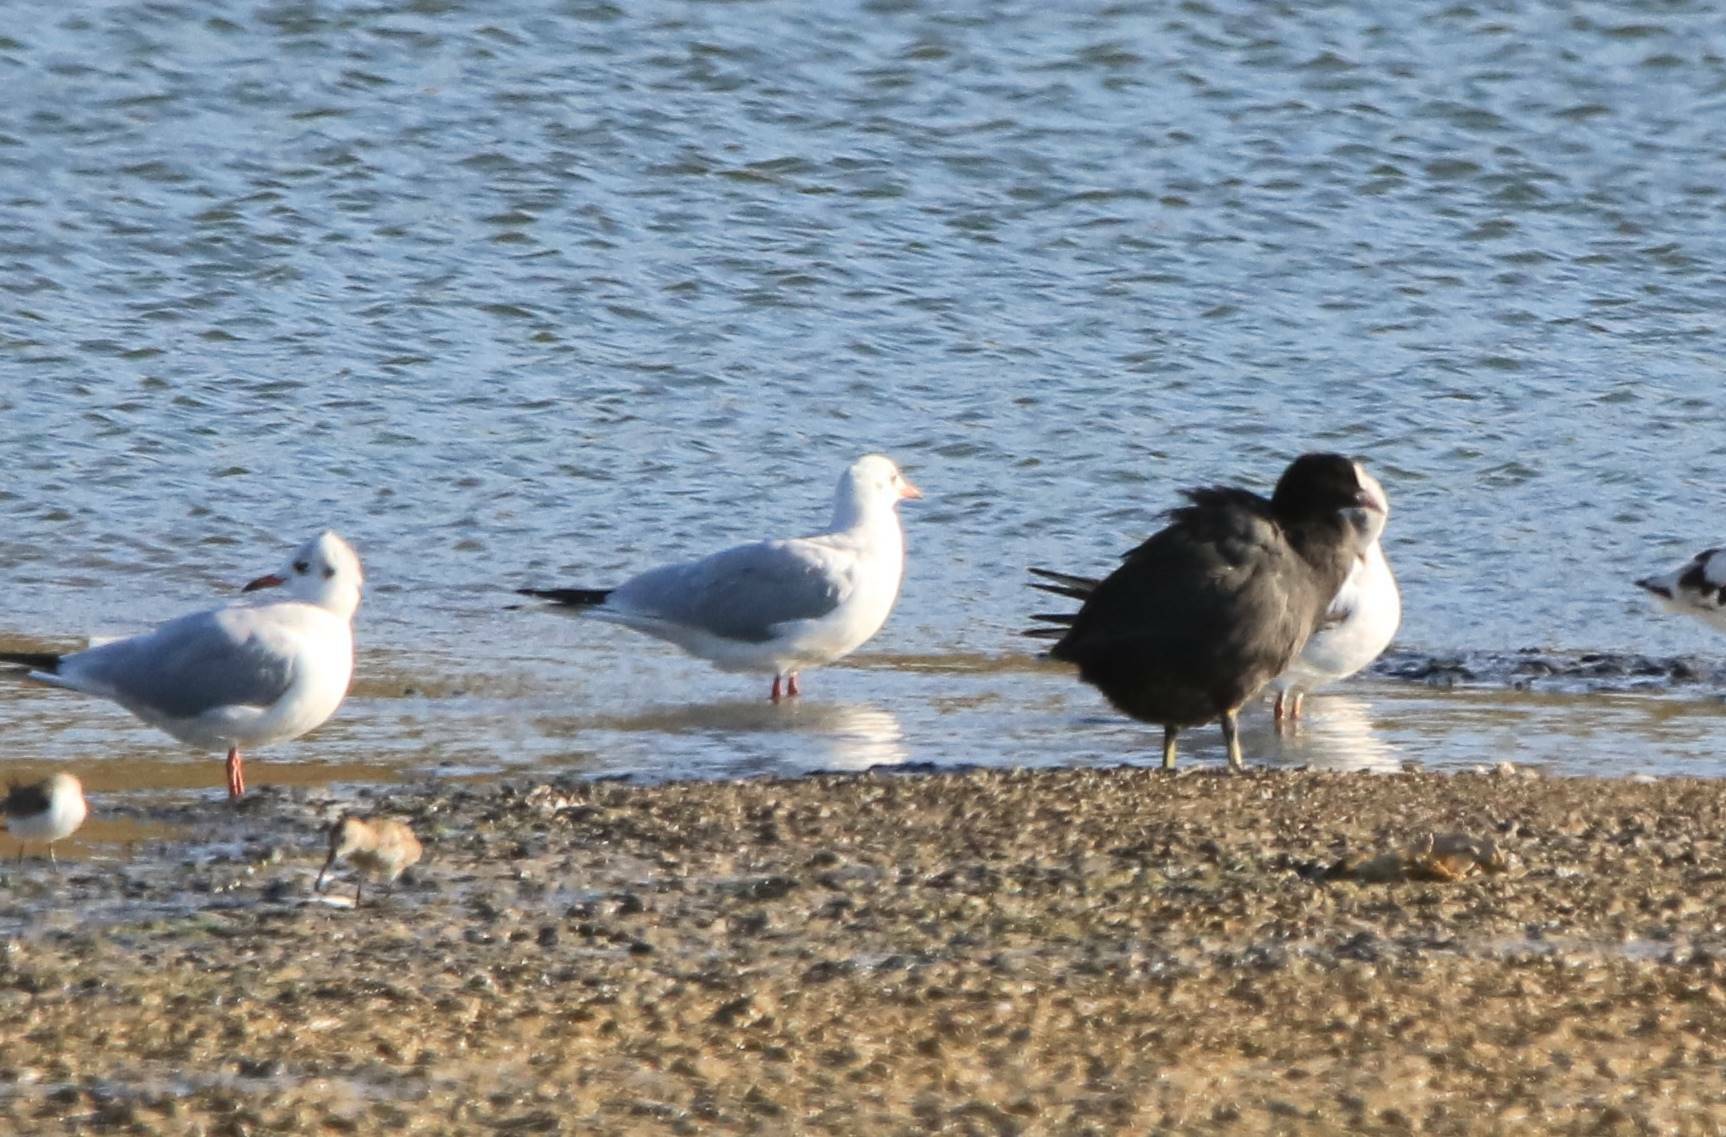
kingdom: Animalia
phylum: Chordata
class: Aves
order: Charadriiformes
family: Laridae
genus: Chroicocephalus
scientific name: Chroicocephalus ridibundus
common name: Black-headed gull
